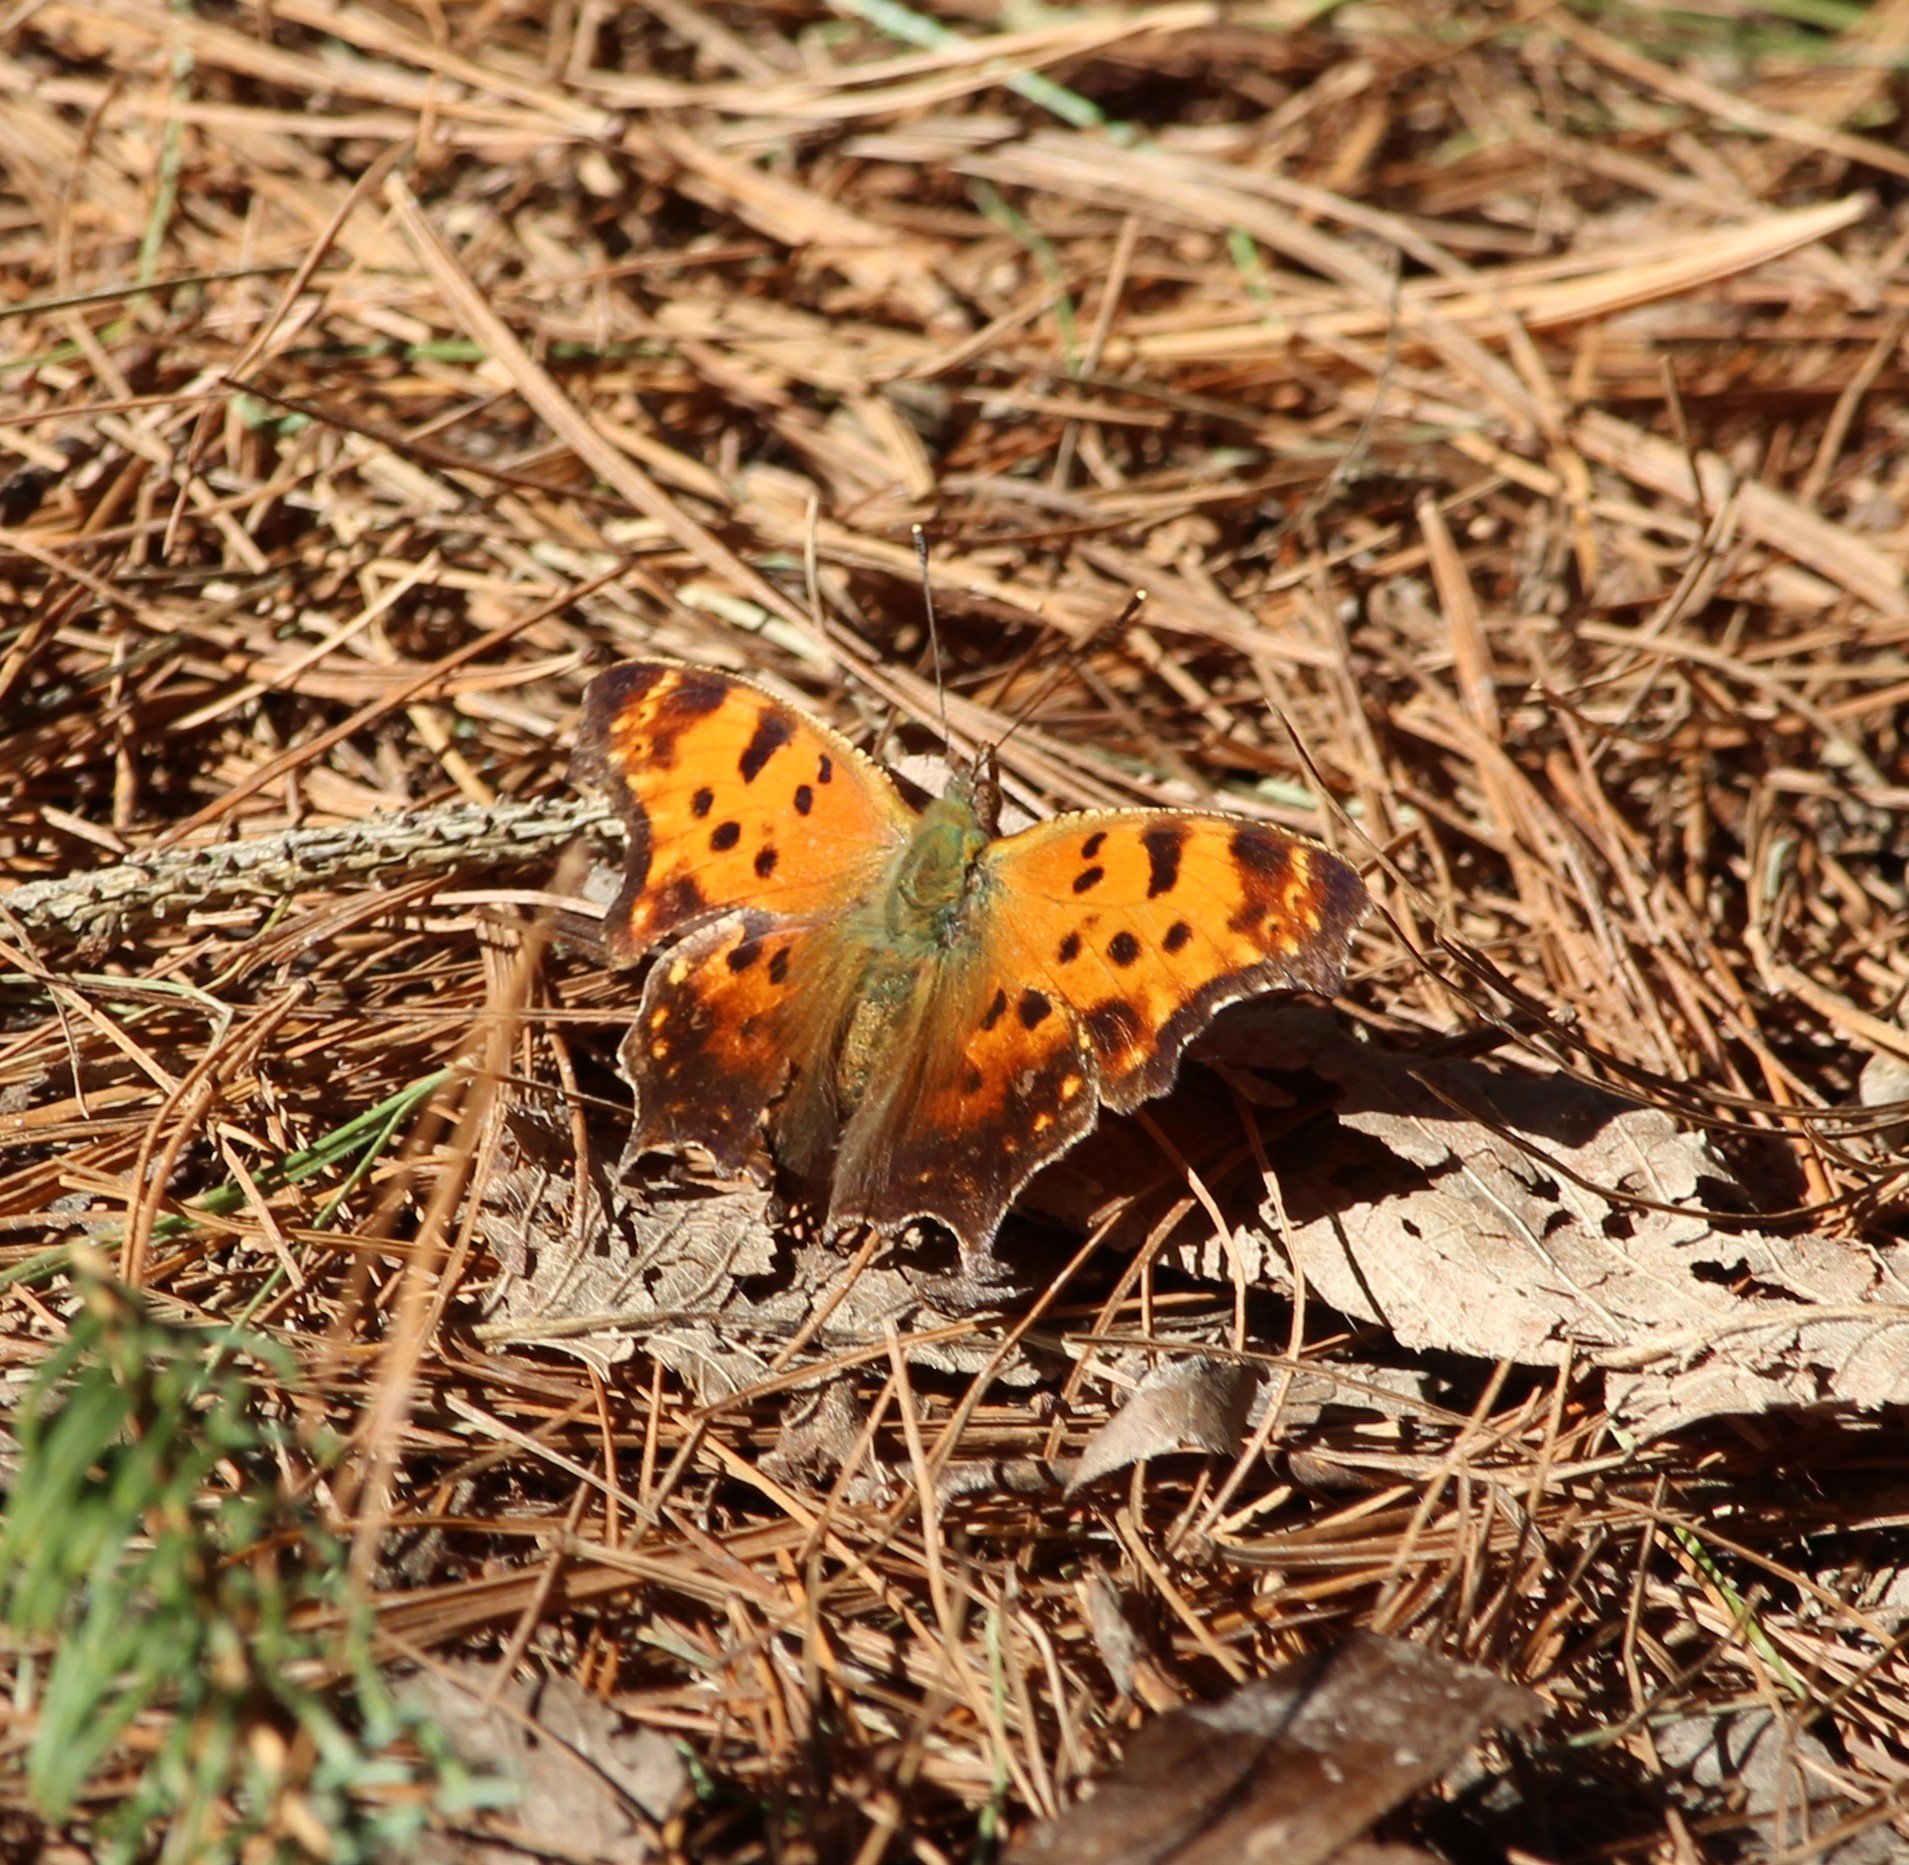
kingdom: Animalia
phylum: Arthropoda
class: Insecta
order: Lepidoptera
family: Nymphalidae
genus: Polygonia
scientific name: Polygonia comma
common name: Eastern comma
